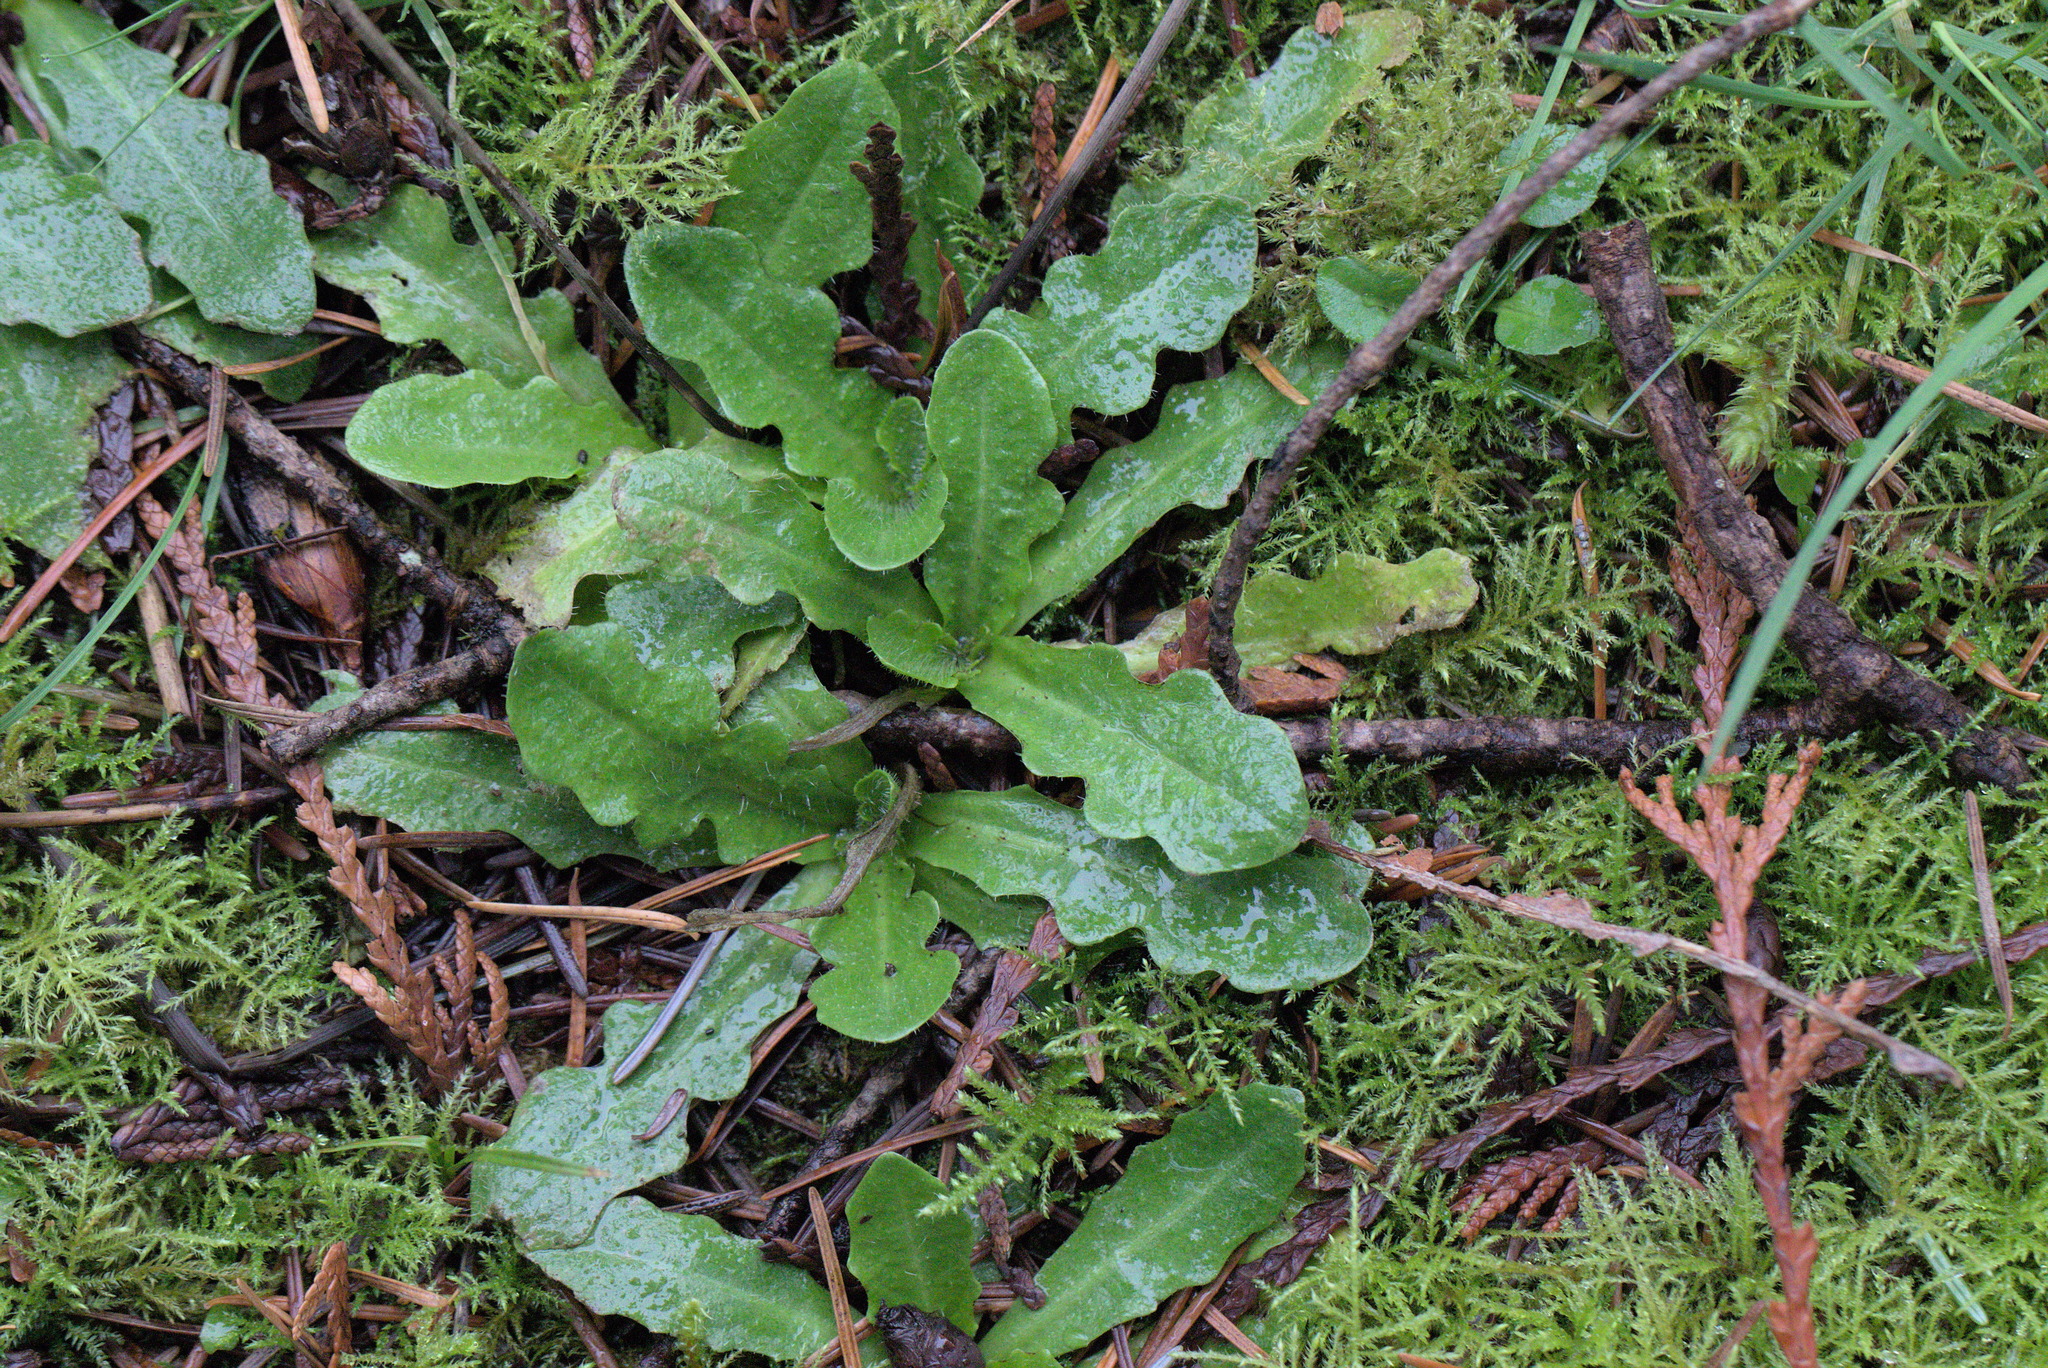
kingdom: Plantae
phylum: Tracheophyta
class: Magnoliopsida
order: Asterales
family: Asteraceae
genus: Hypochaeris
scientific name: Hypochaeris radicata
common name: Flatweed
